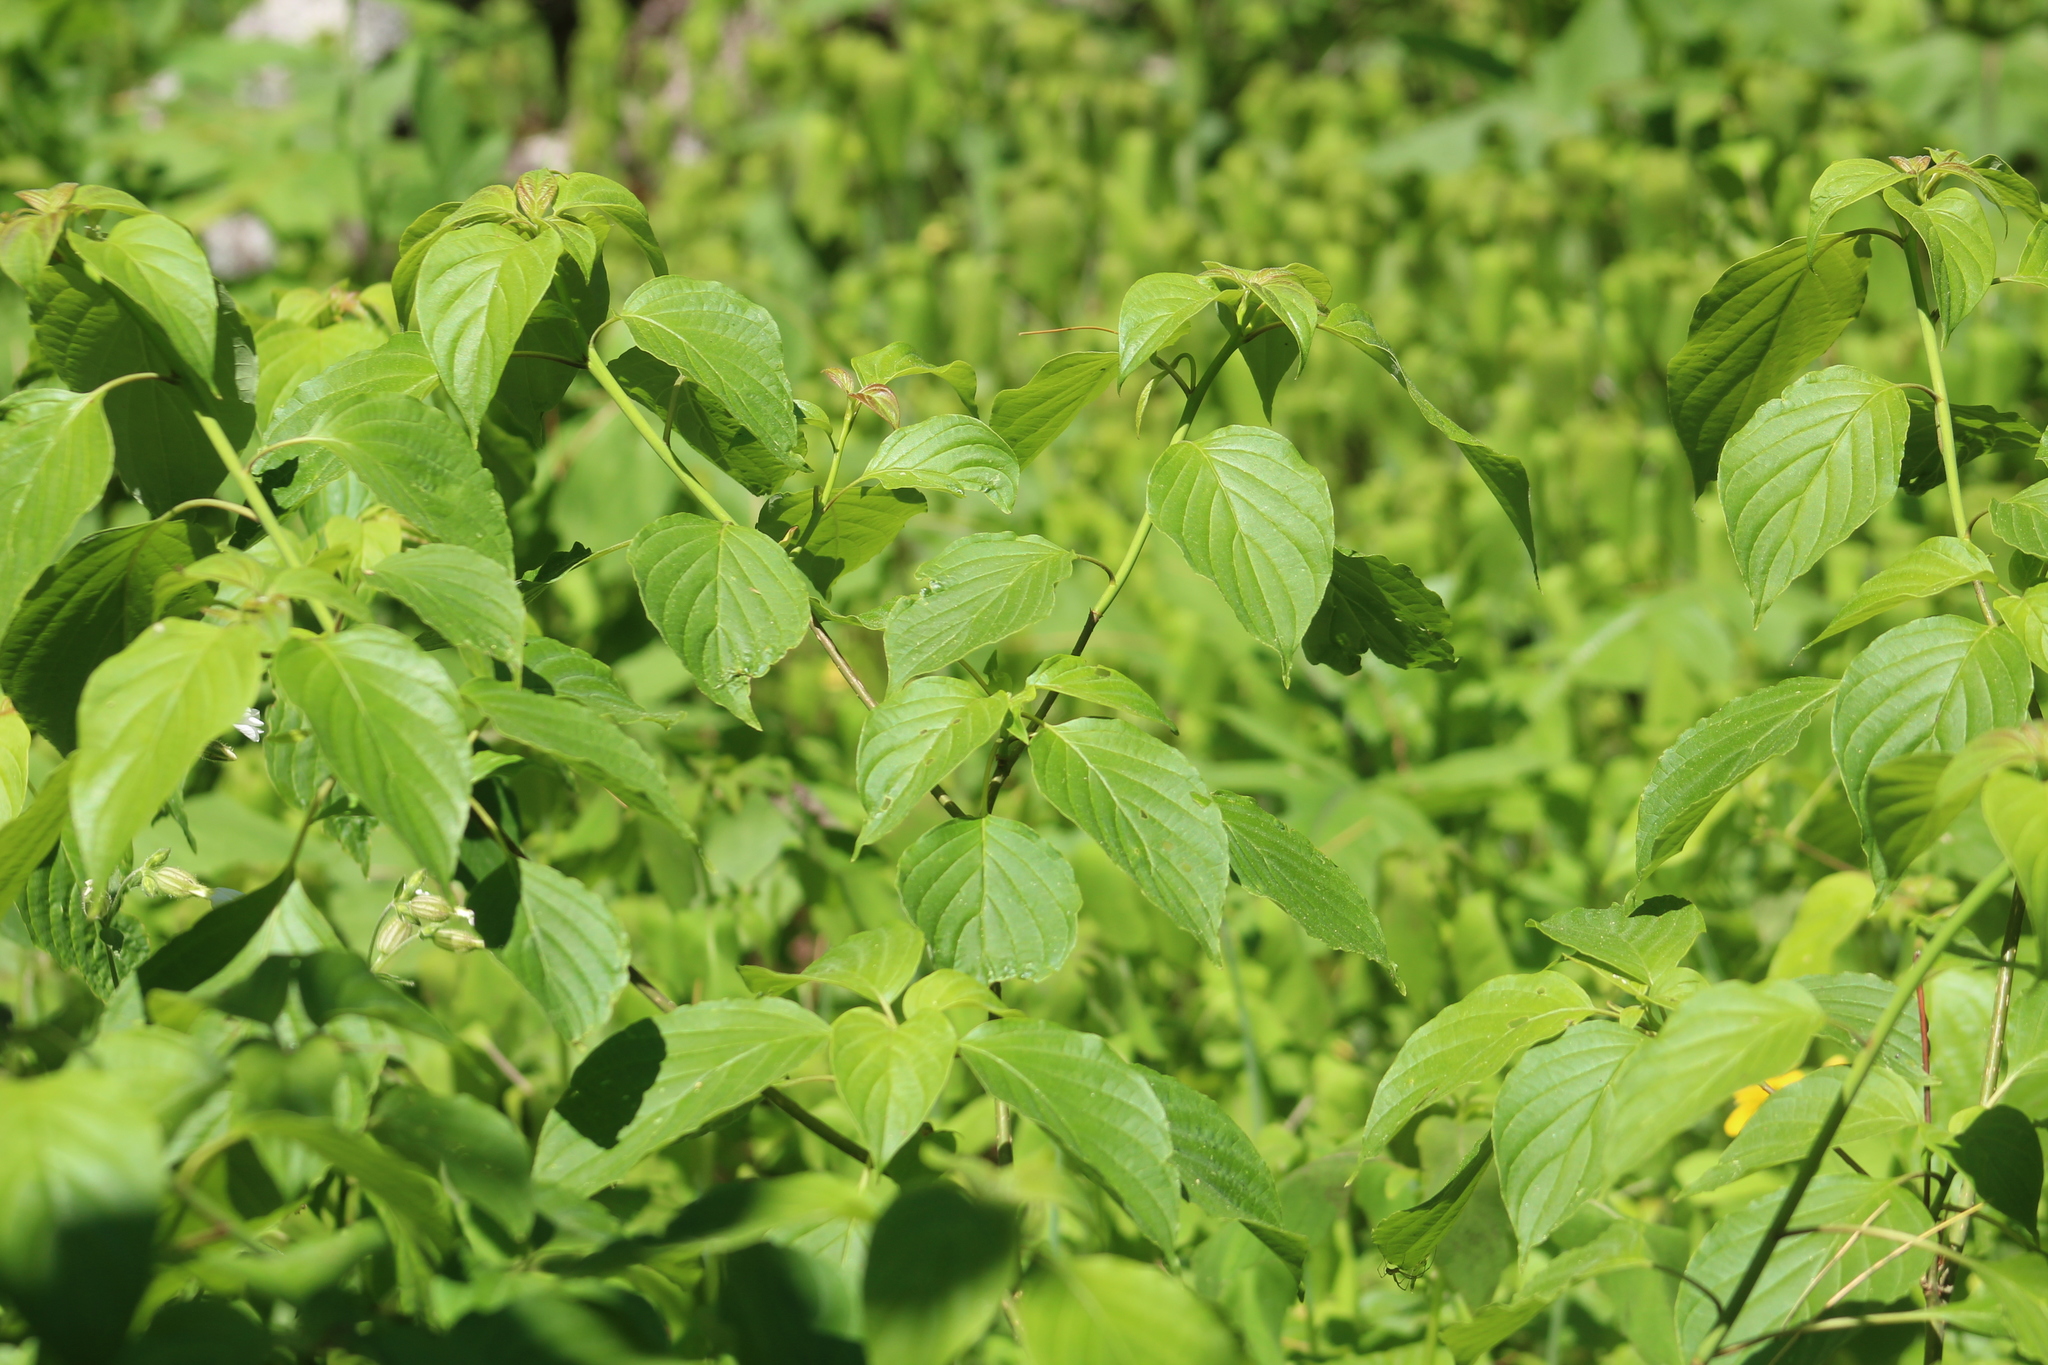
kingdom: Plantae
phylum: Tracheophyta
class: Magnoliopsida
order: Cornales
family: Cornaceae
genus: Cornus
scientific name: Cornus alternifolia
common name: Pagoda dogwood
